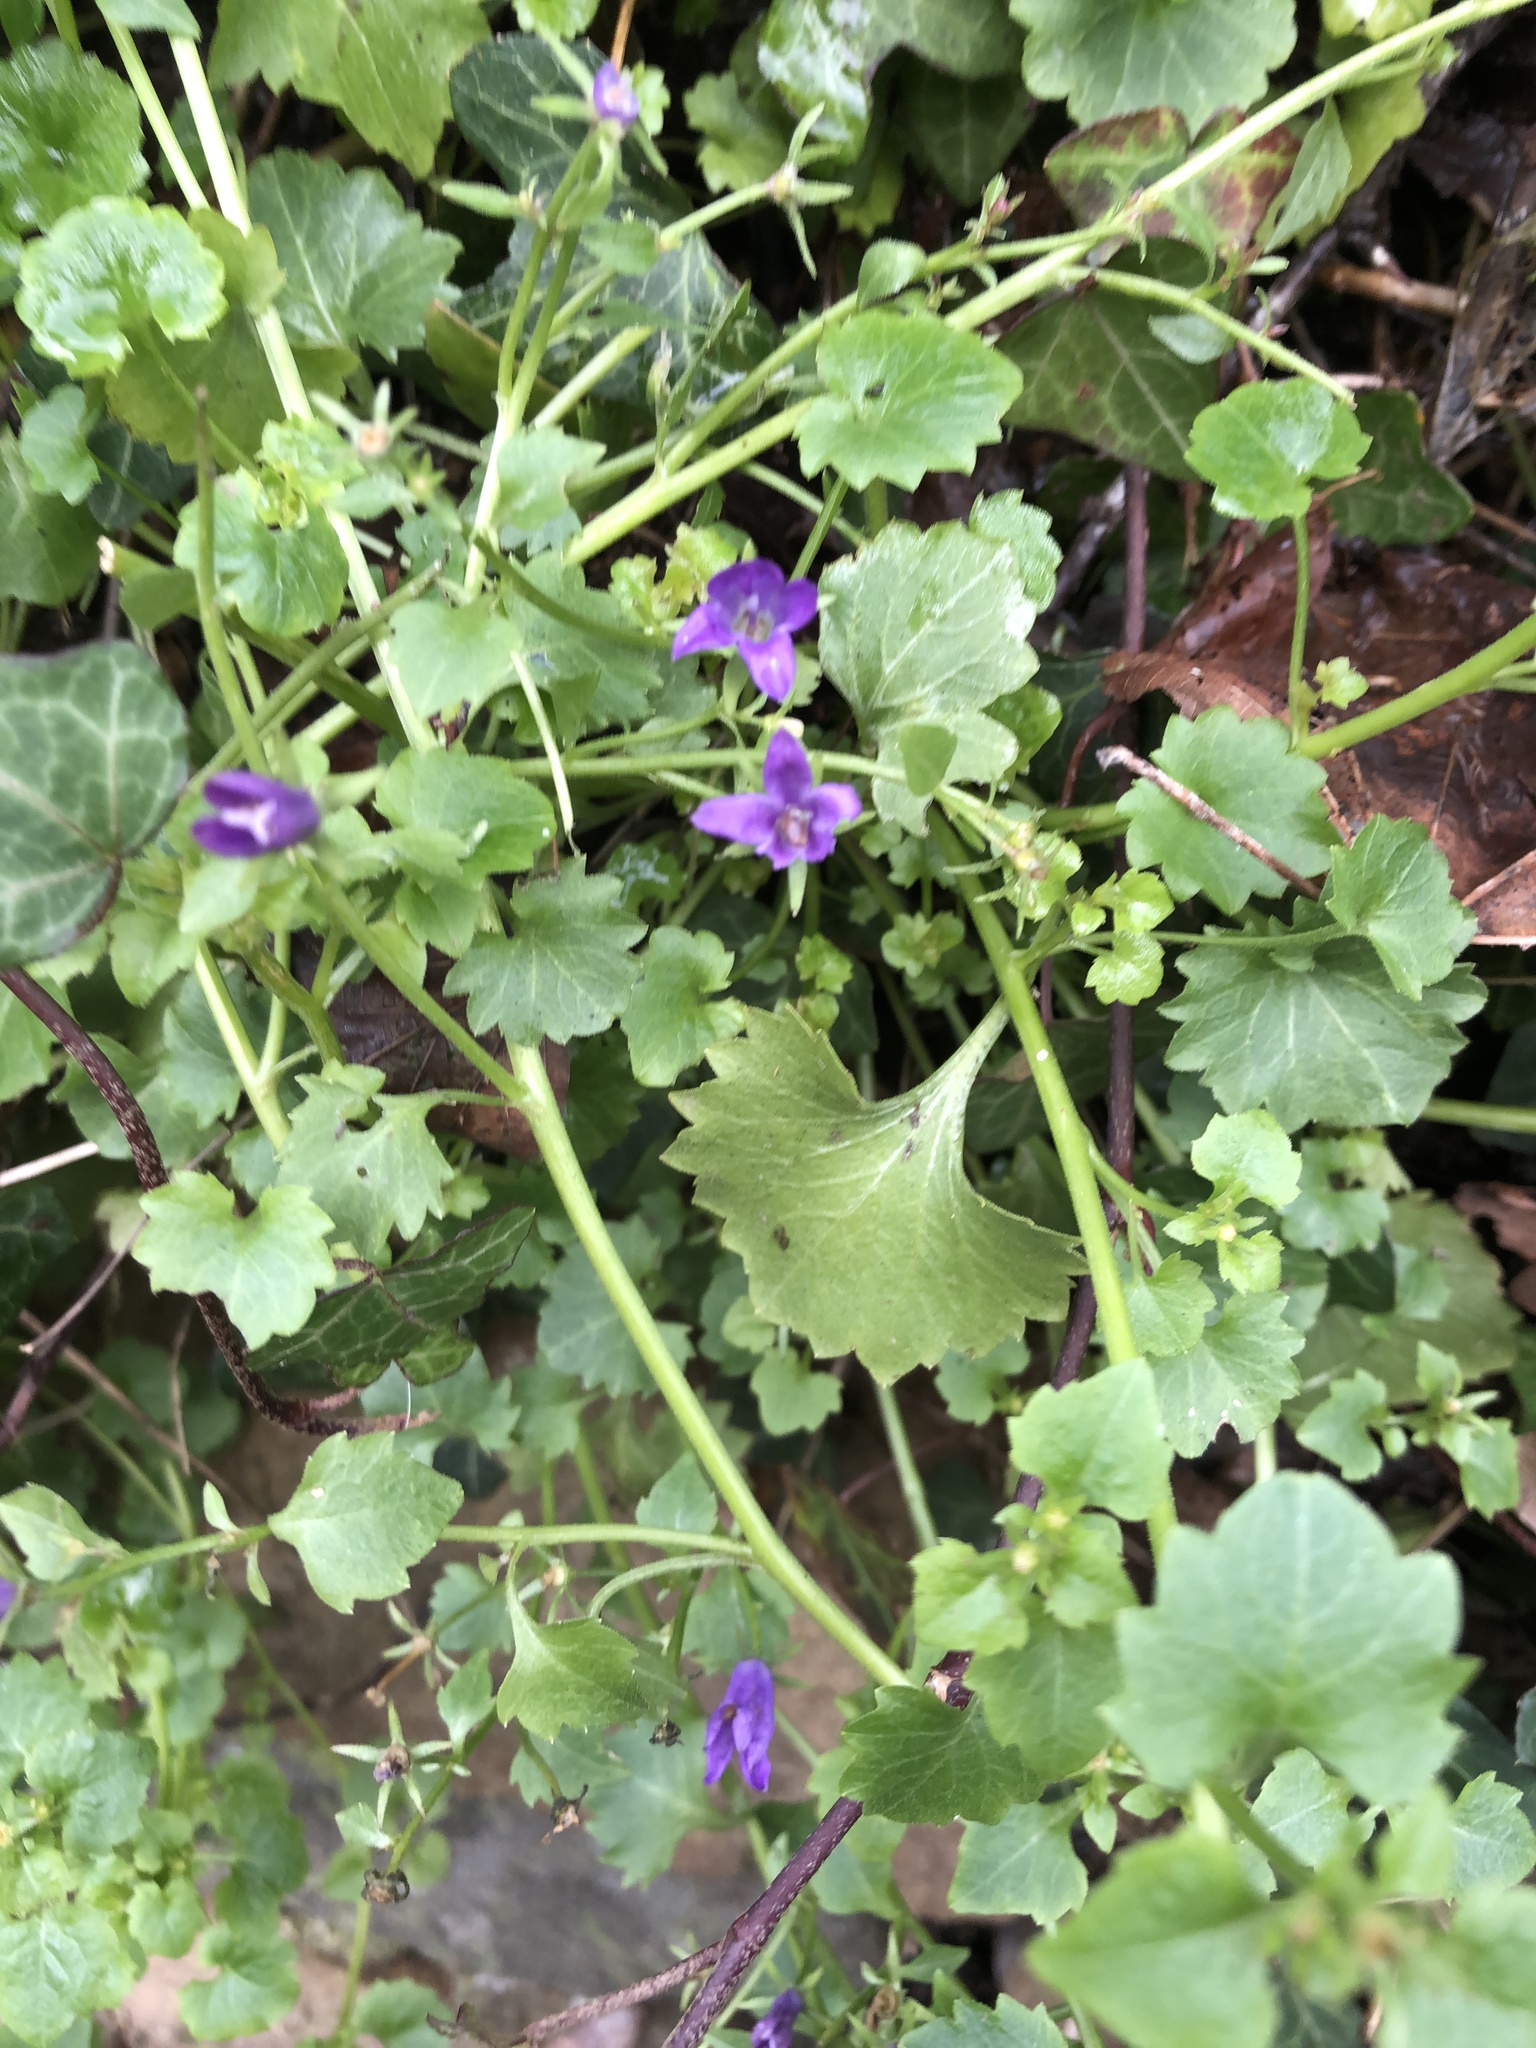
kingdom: Plantae
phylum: Tracheophyta
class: Magnoliopsida
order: Asterales
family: Campanulaceae
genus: Campanula
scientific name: Campanula portenschlagiana
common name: Adria bellflower
